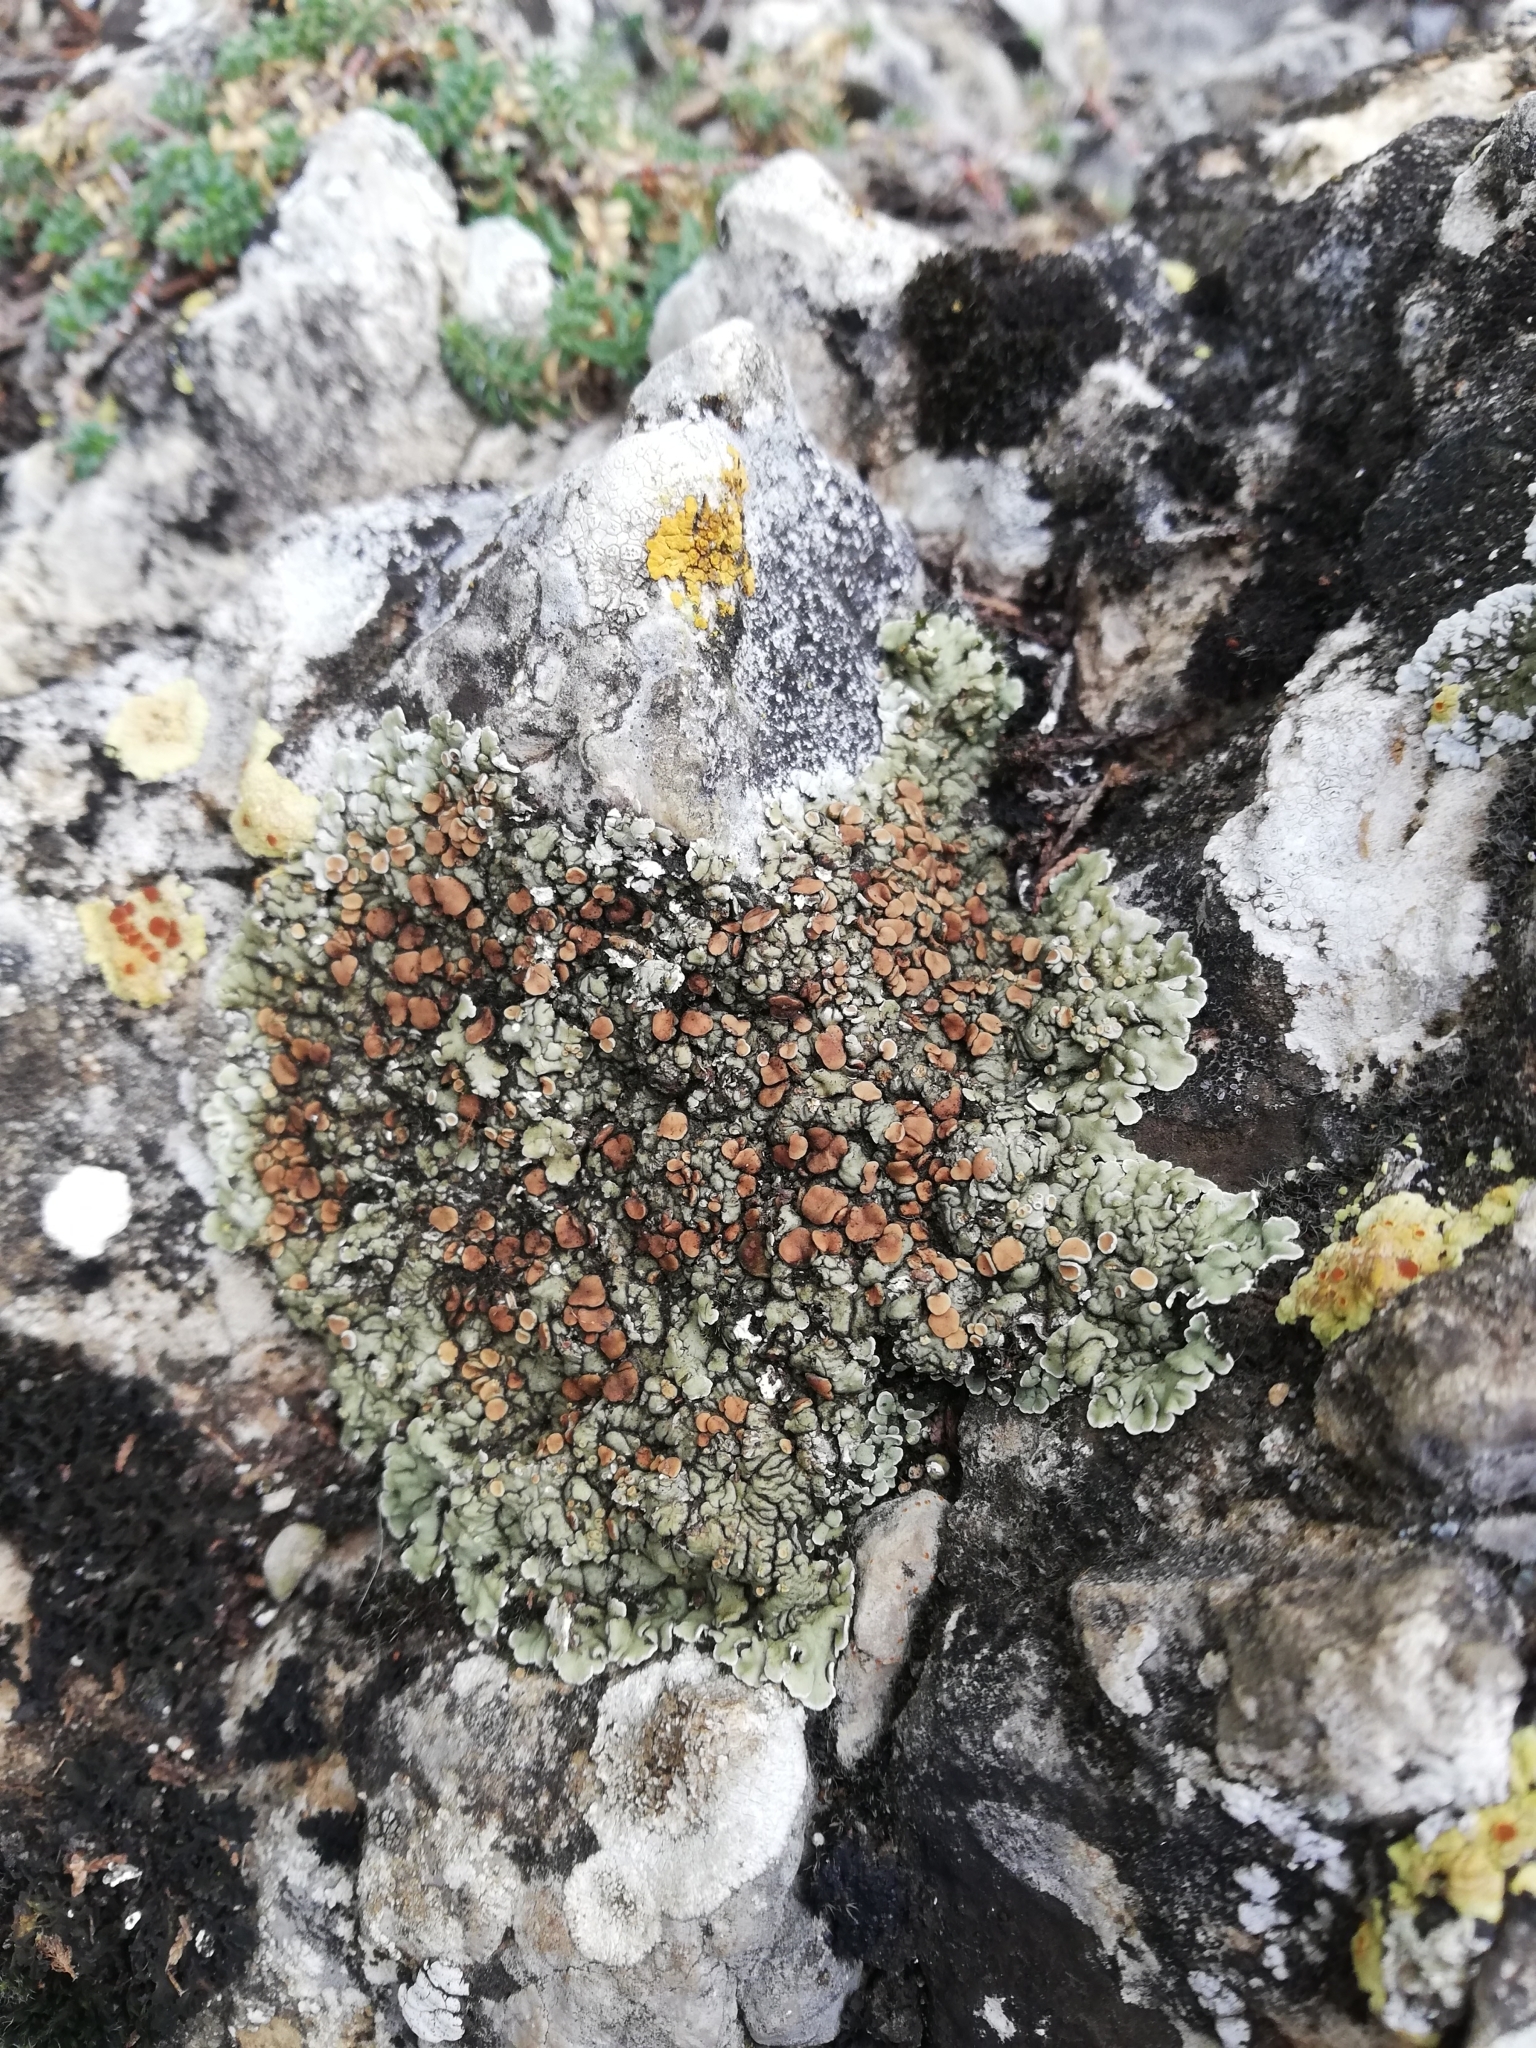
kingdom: Fungi
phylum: Ascomycota
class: Lecanoromycetes
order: Lecanorales
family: Stereocaulaceae
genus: Squamarina
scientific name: Squamarina cartilaginea
